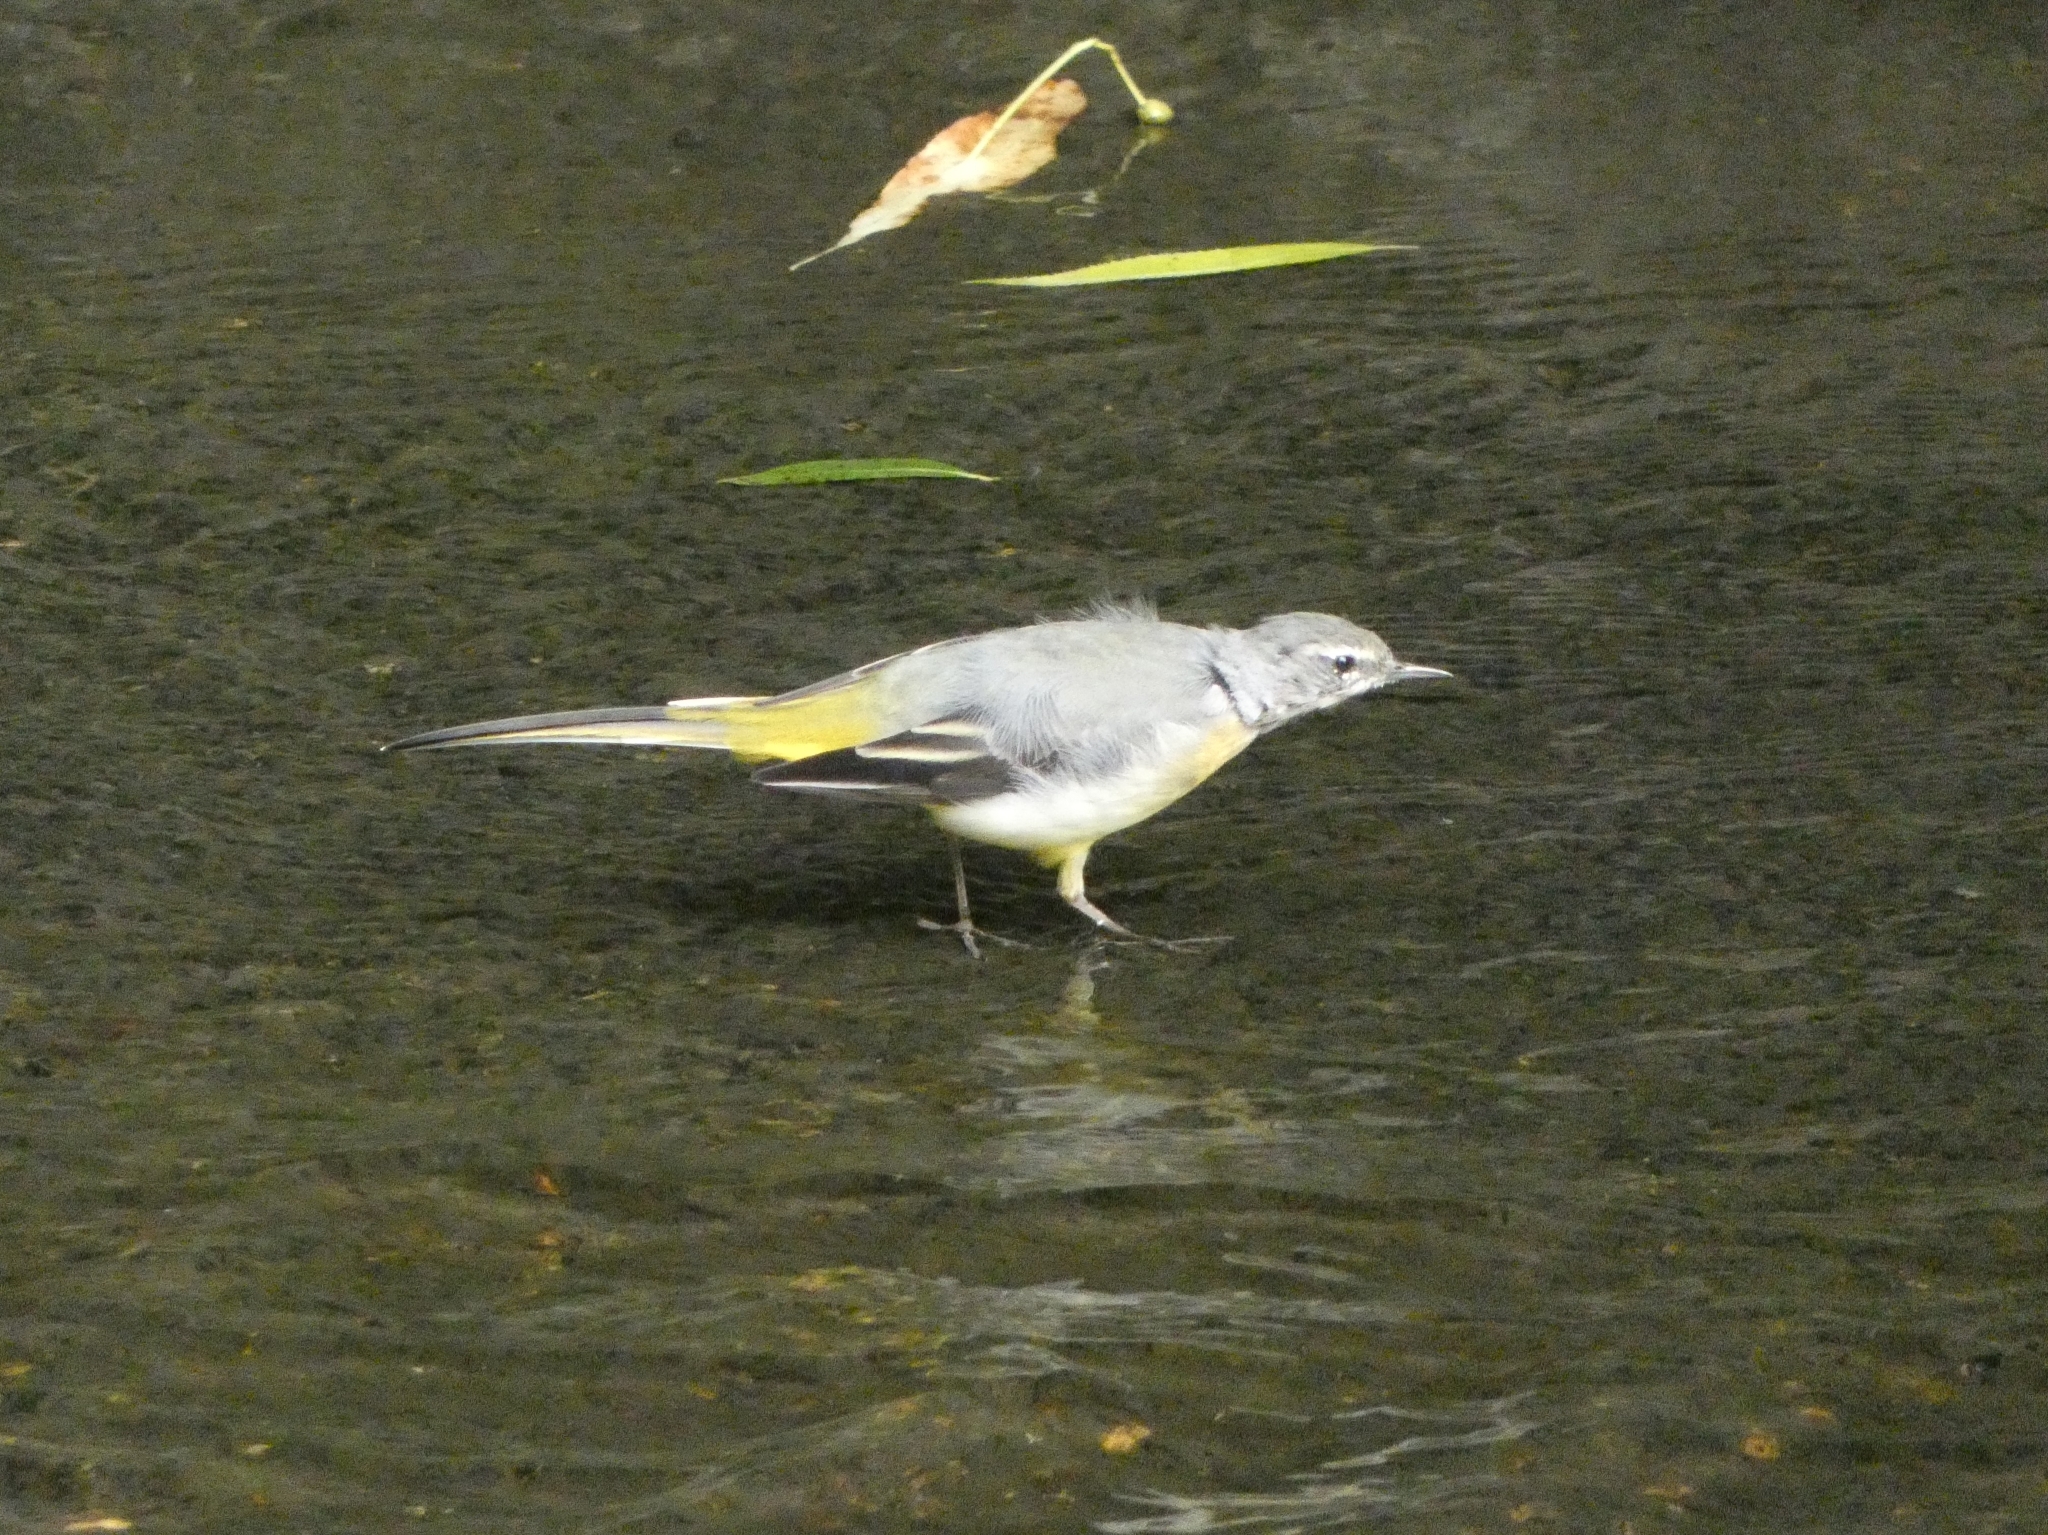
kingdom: Animalia
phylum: Chordata
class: Aves
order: Passeriformes
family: Motacillidae
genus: Motacilla
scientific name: Motacilla cinerea
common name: Grey wagtail
